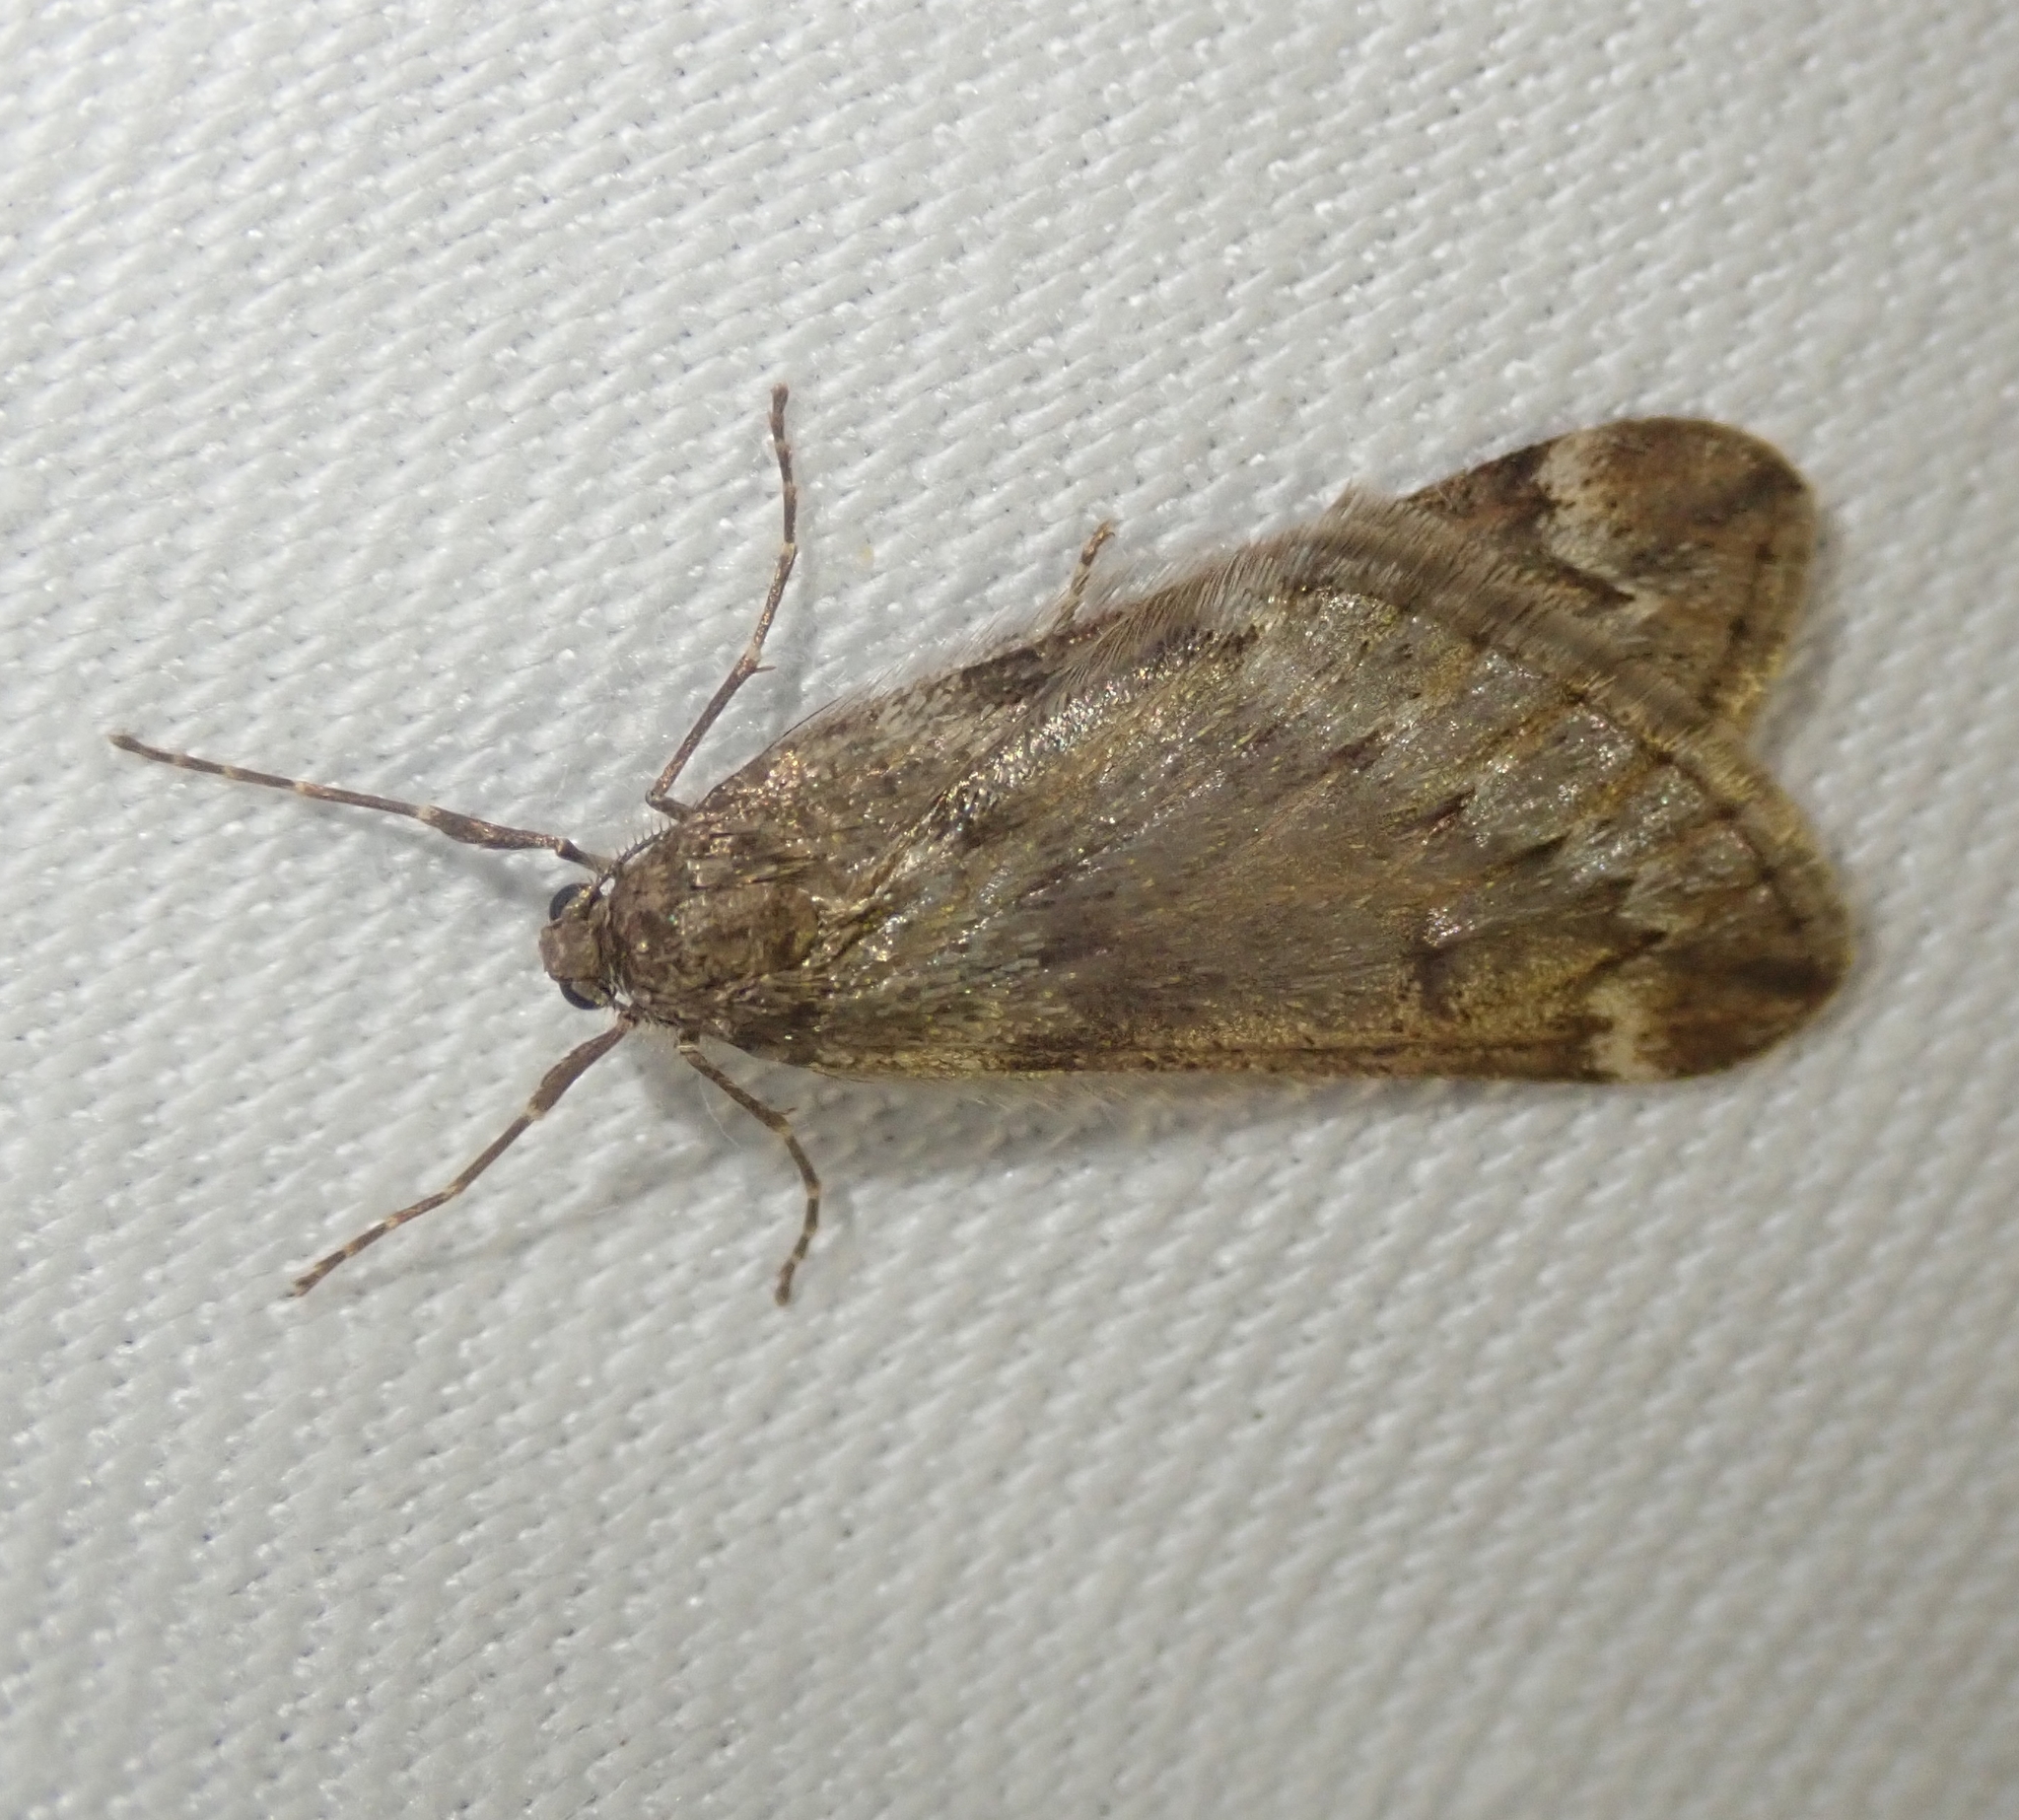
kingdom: Animalia
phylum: Arthropoda
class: Insecta
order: Lepidoptera
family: Geometridae
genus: Alsophila
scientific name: Alsophila aescularia
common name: March moth
